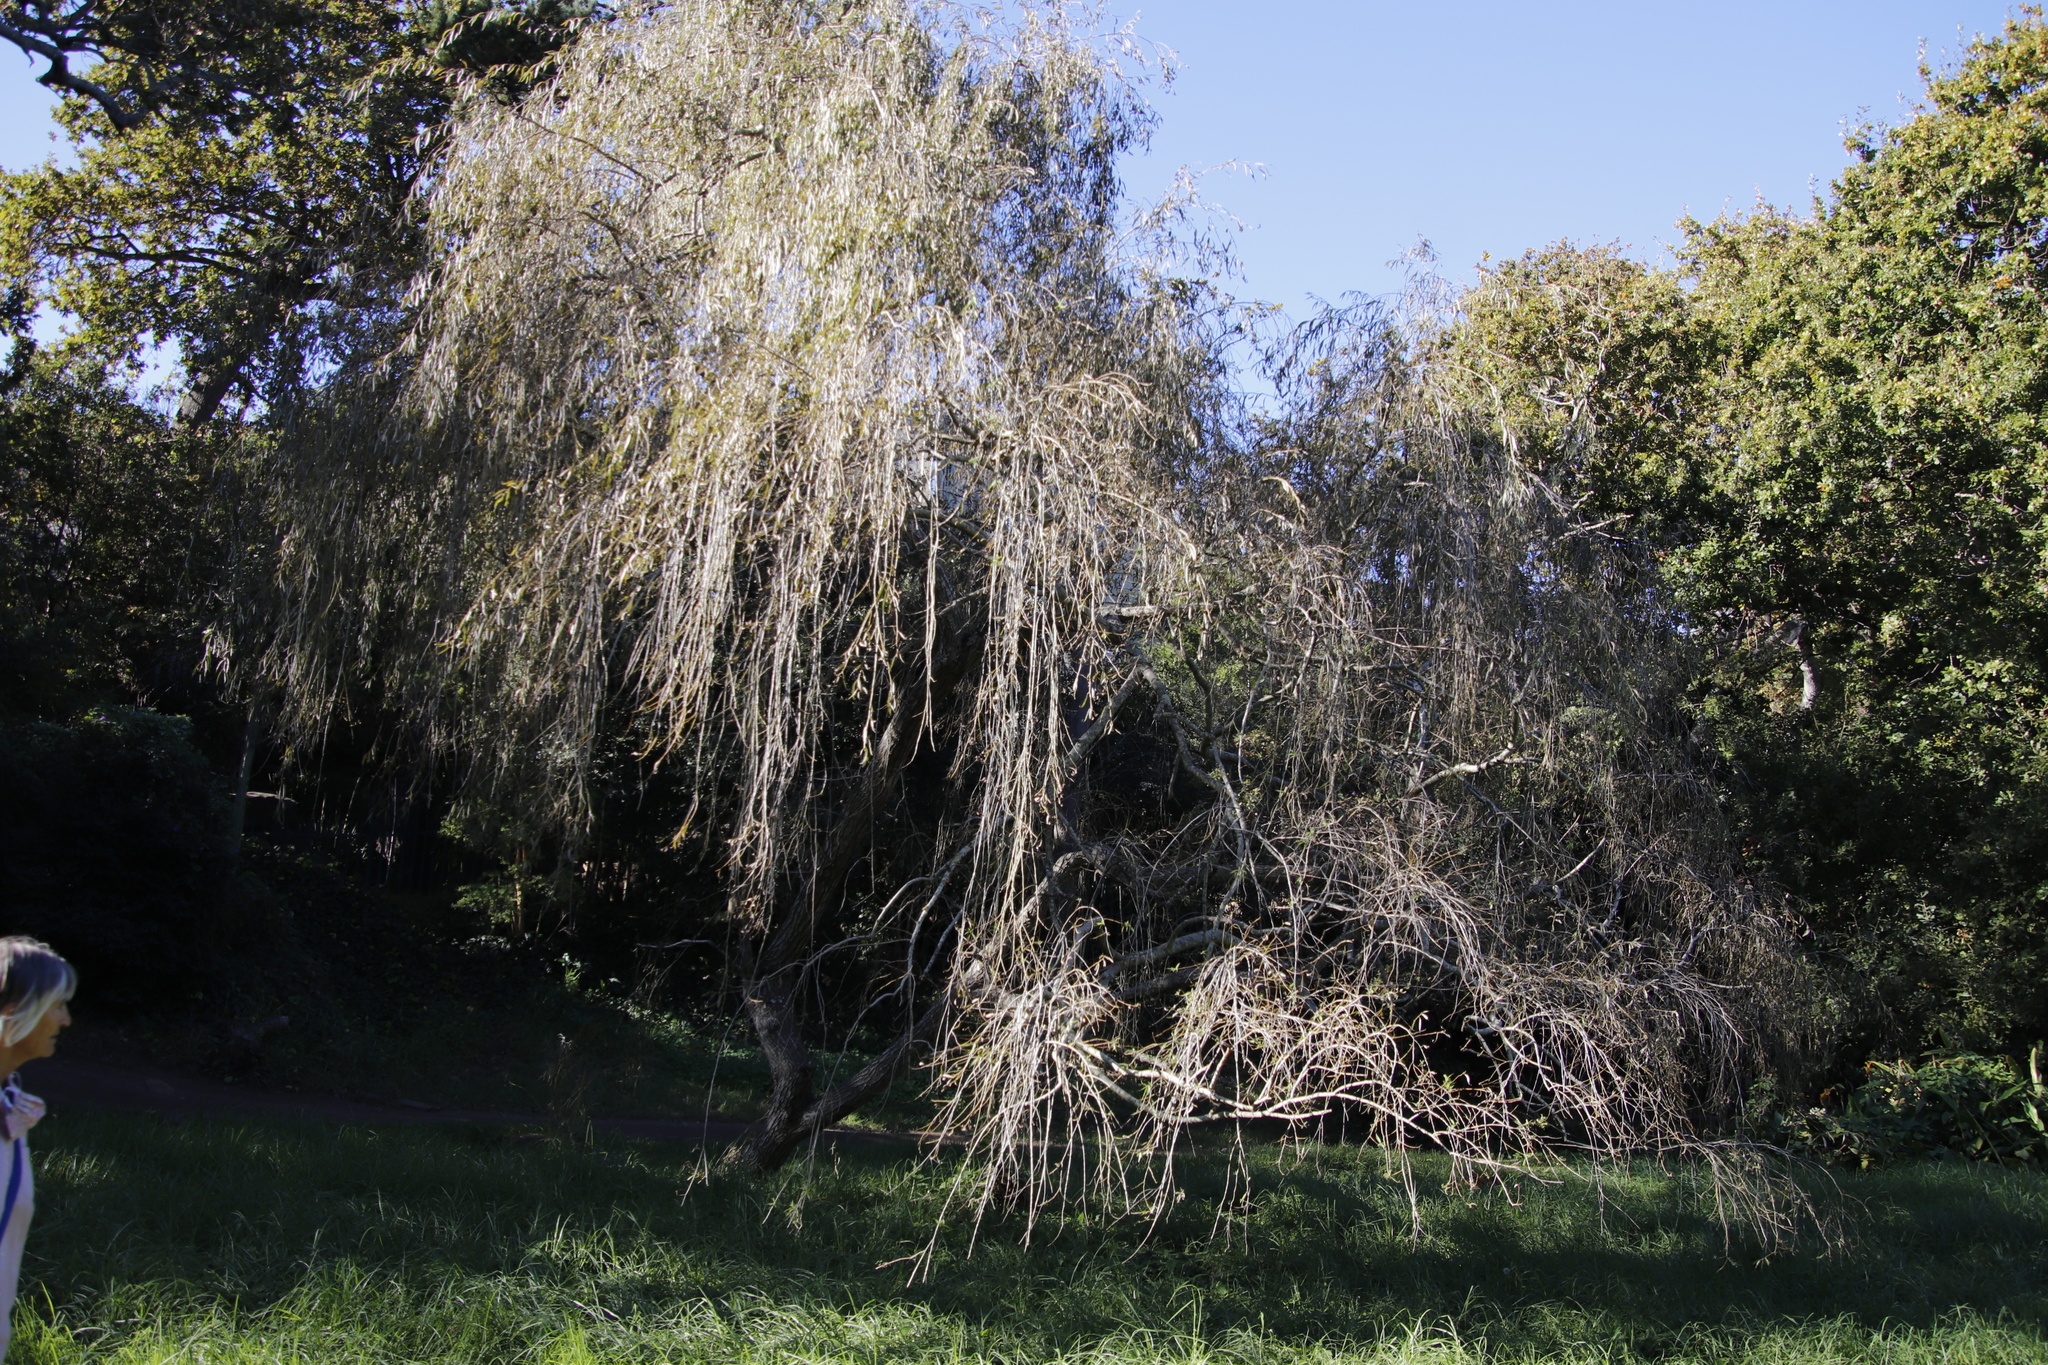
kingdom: Plantae
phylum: Tracheophyta
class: Magnoliopsida
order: Malpighiales
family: Salicaceae
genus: Salix
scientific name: Salix babylonica
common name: Weeping willow
